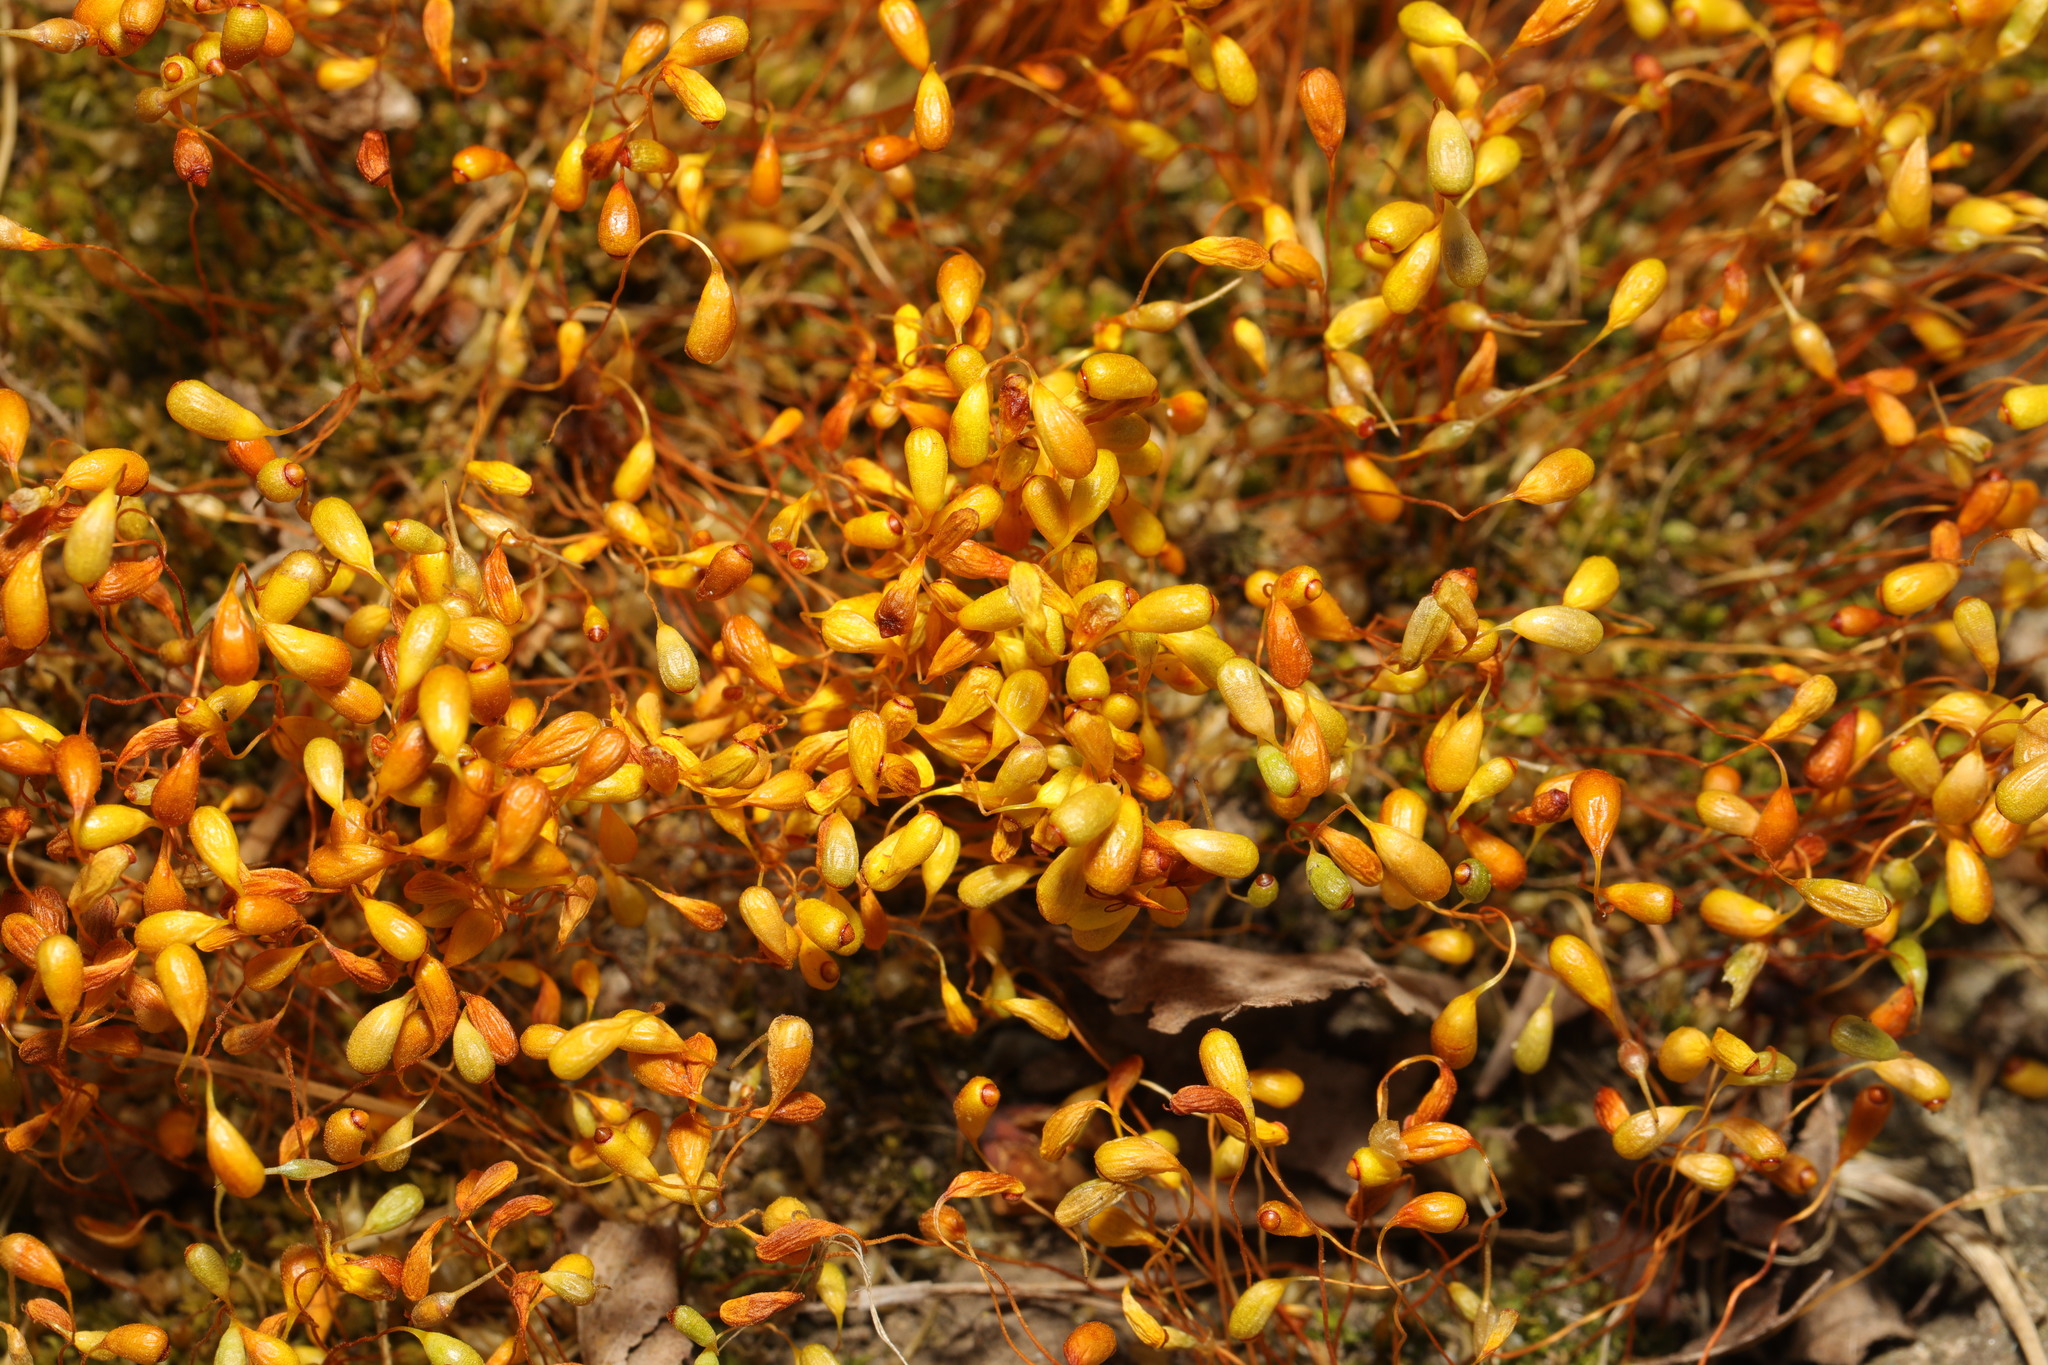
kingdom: Plantae
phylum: Bryophyta
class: Bryopsida
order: Funariales
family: Funariaceae
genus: Funaria
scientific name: Funaria hygrometrica
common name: Common cord moss
